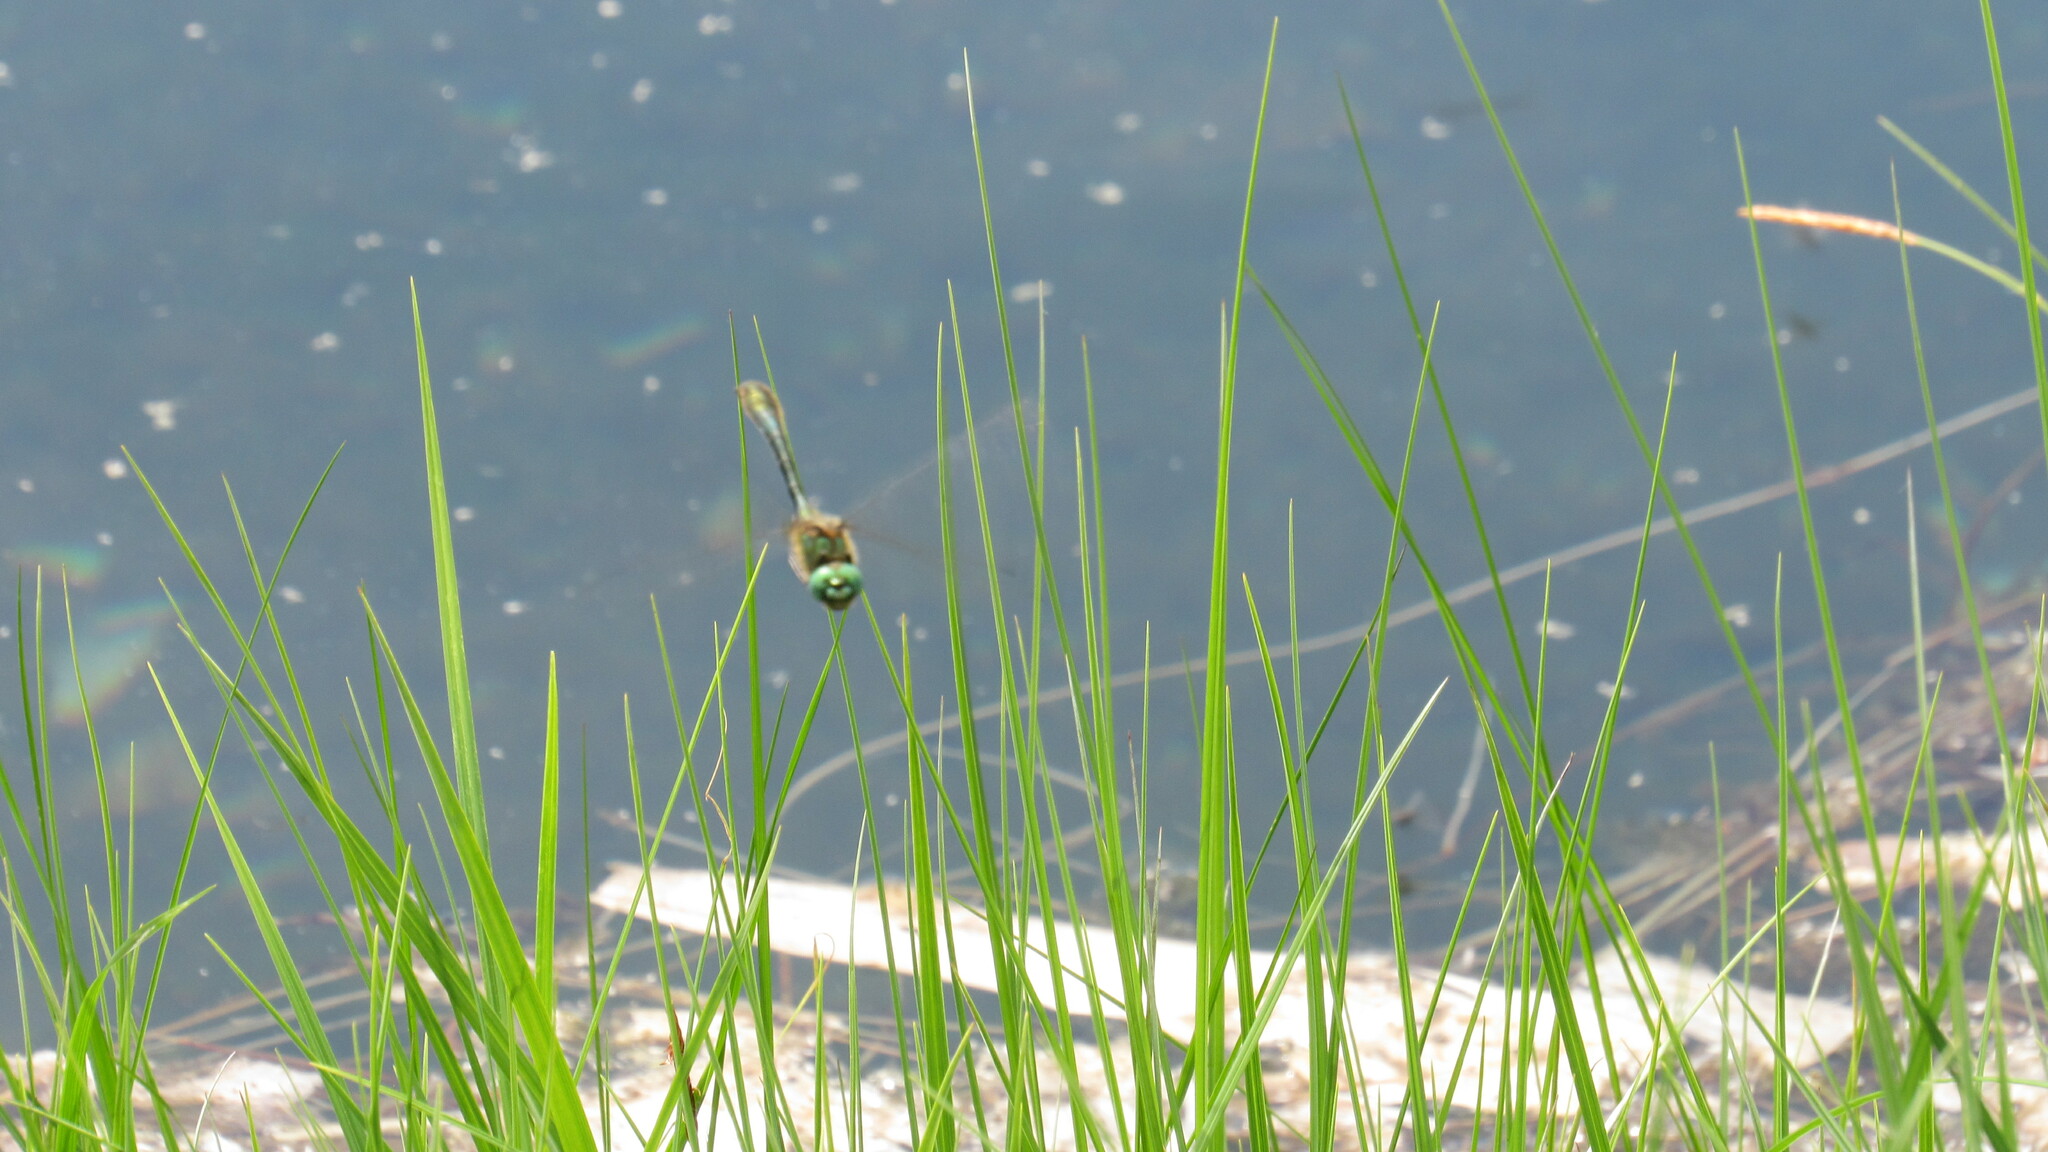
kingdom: Animalia
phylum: Arthropoda
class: Insecta
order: Odonata
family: Corduliidae
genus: Cordulia
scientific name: Cordulia aenea
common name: Downy emerald
